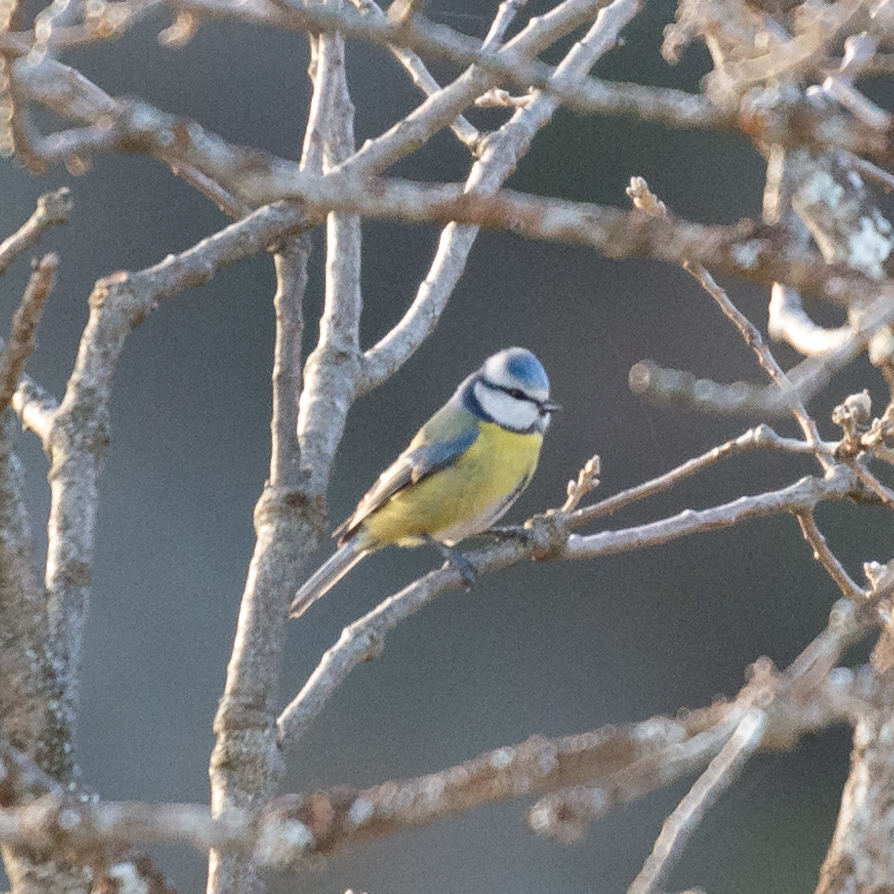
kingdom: Animalia
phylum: Chordata
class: Aves
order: Passeriformes
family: Paridae
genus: Cyanistes
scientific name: Cyanistes caeruleus
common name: Eurasian blue tit
